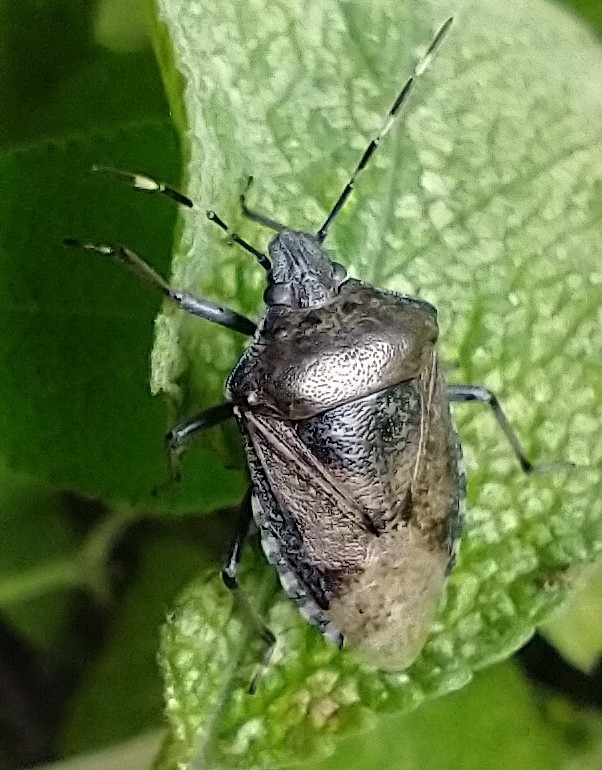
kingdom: Animalia
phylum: Arthropoda
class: Insecta
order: Hemiptera
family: Pentatomidae
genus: Rhaphigaster
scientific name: Rhaphigaster nebulosa
